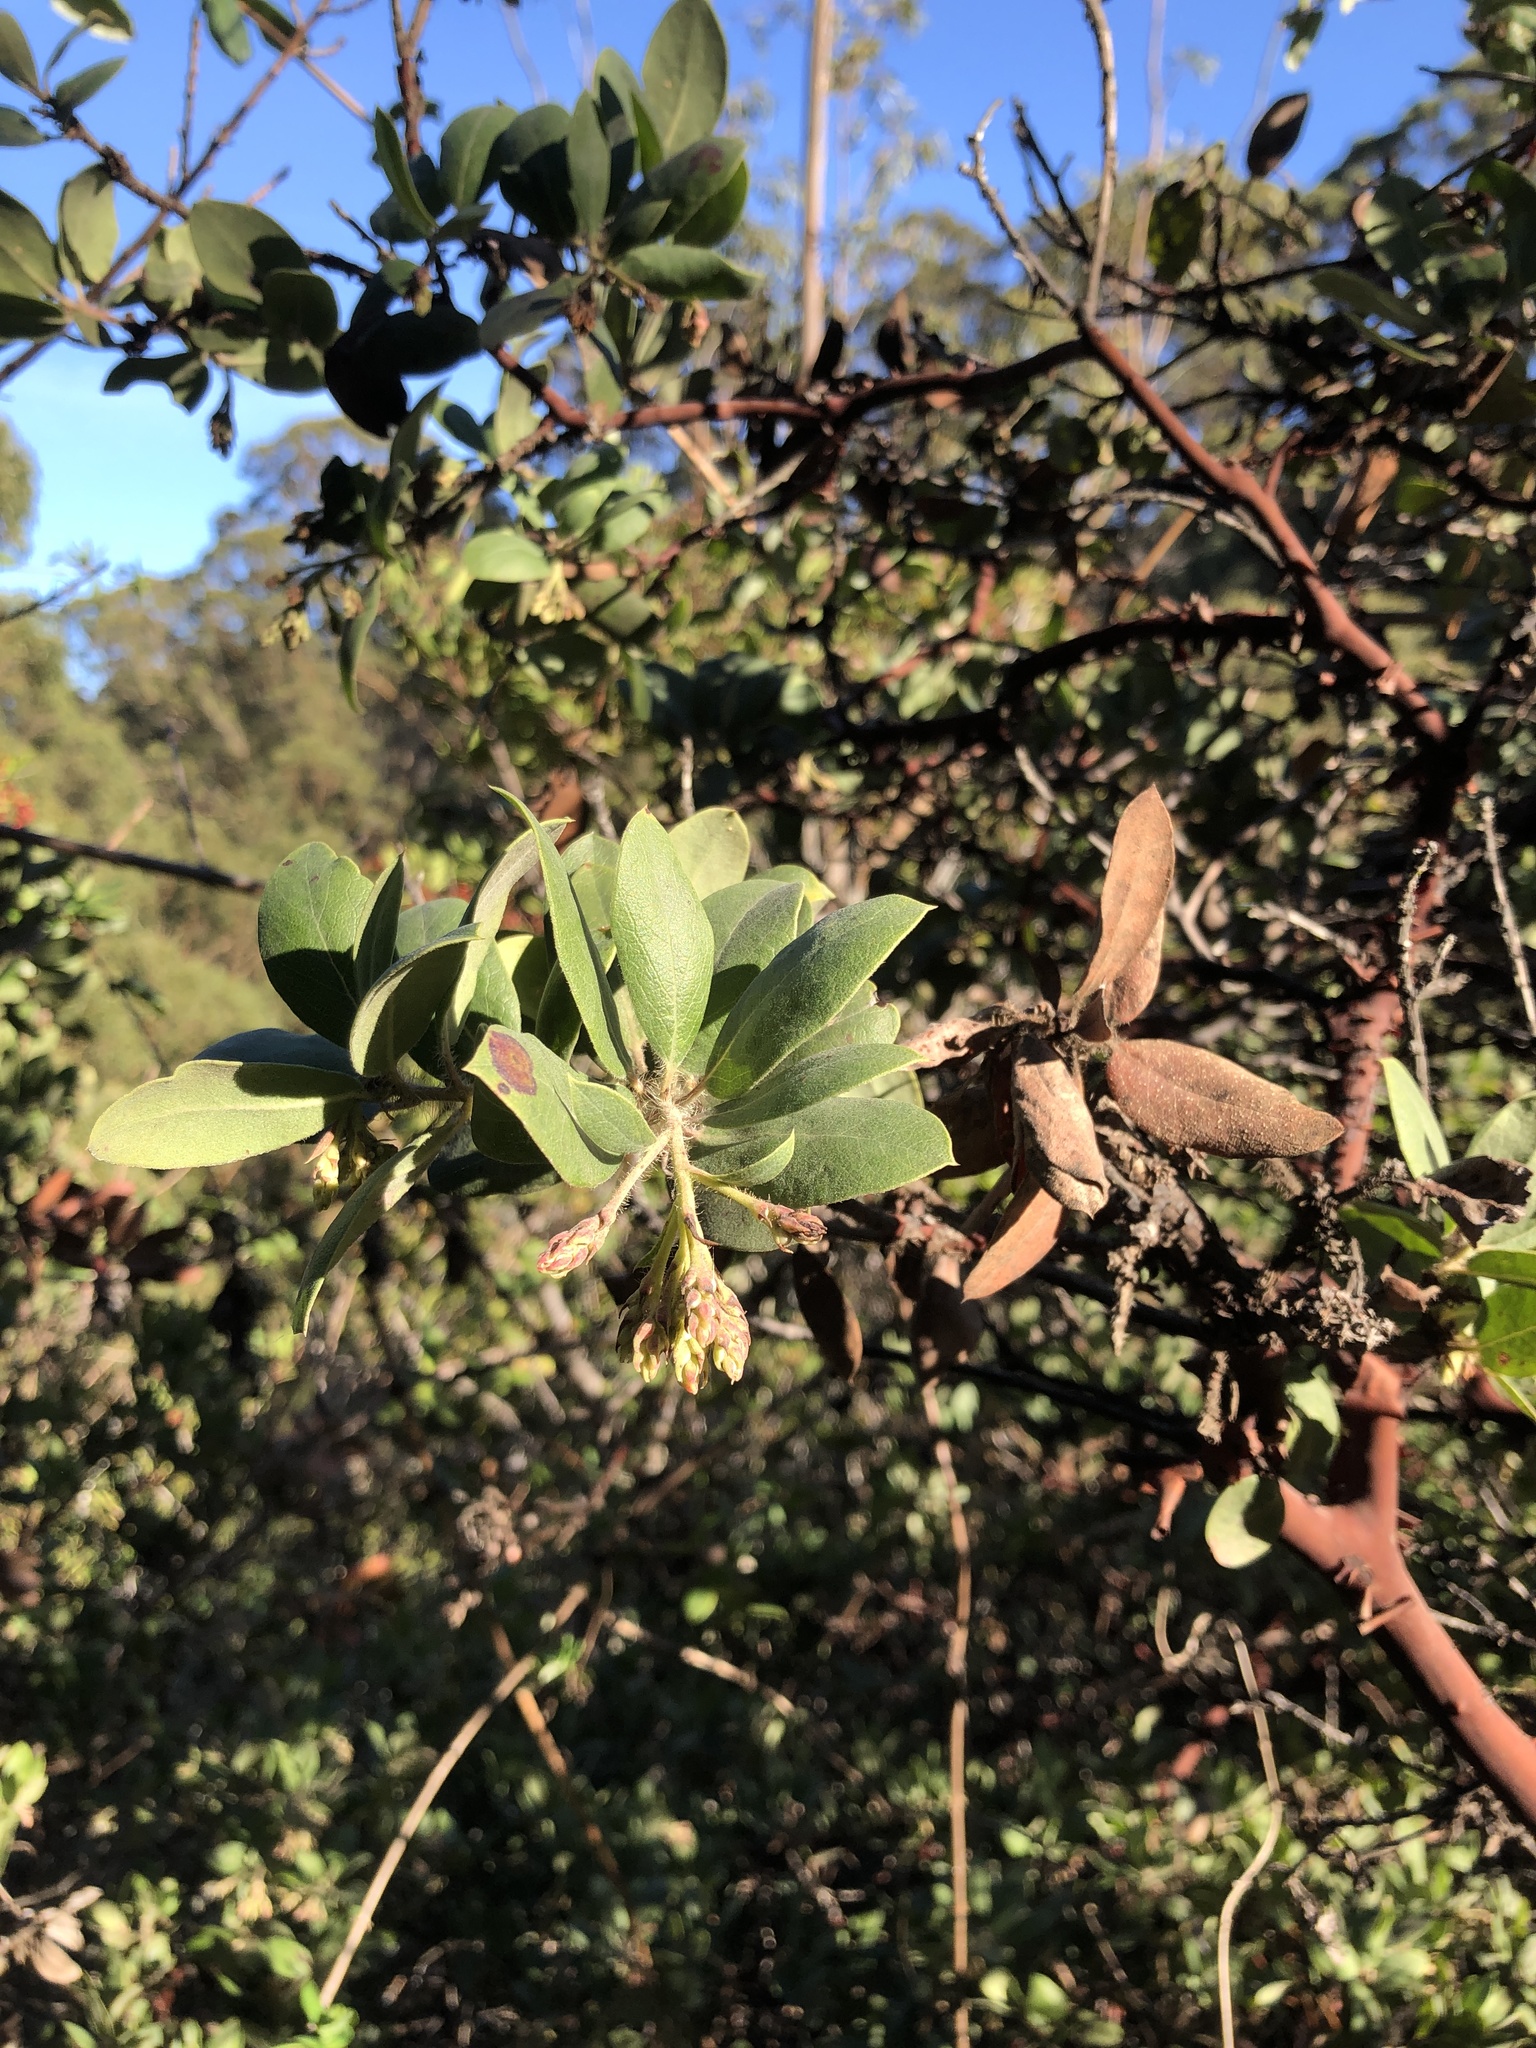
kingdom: Plantae
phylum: Tracheophyta
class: Magnoliopsida
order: Ericales
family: Ericaceae
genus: Arctostaphylos
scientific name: Arctostaphylos crustacea
